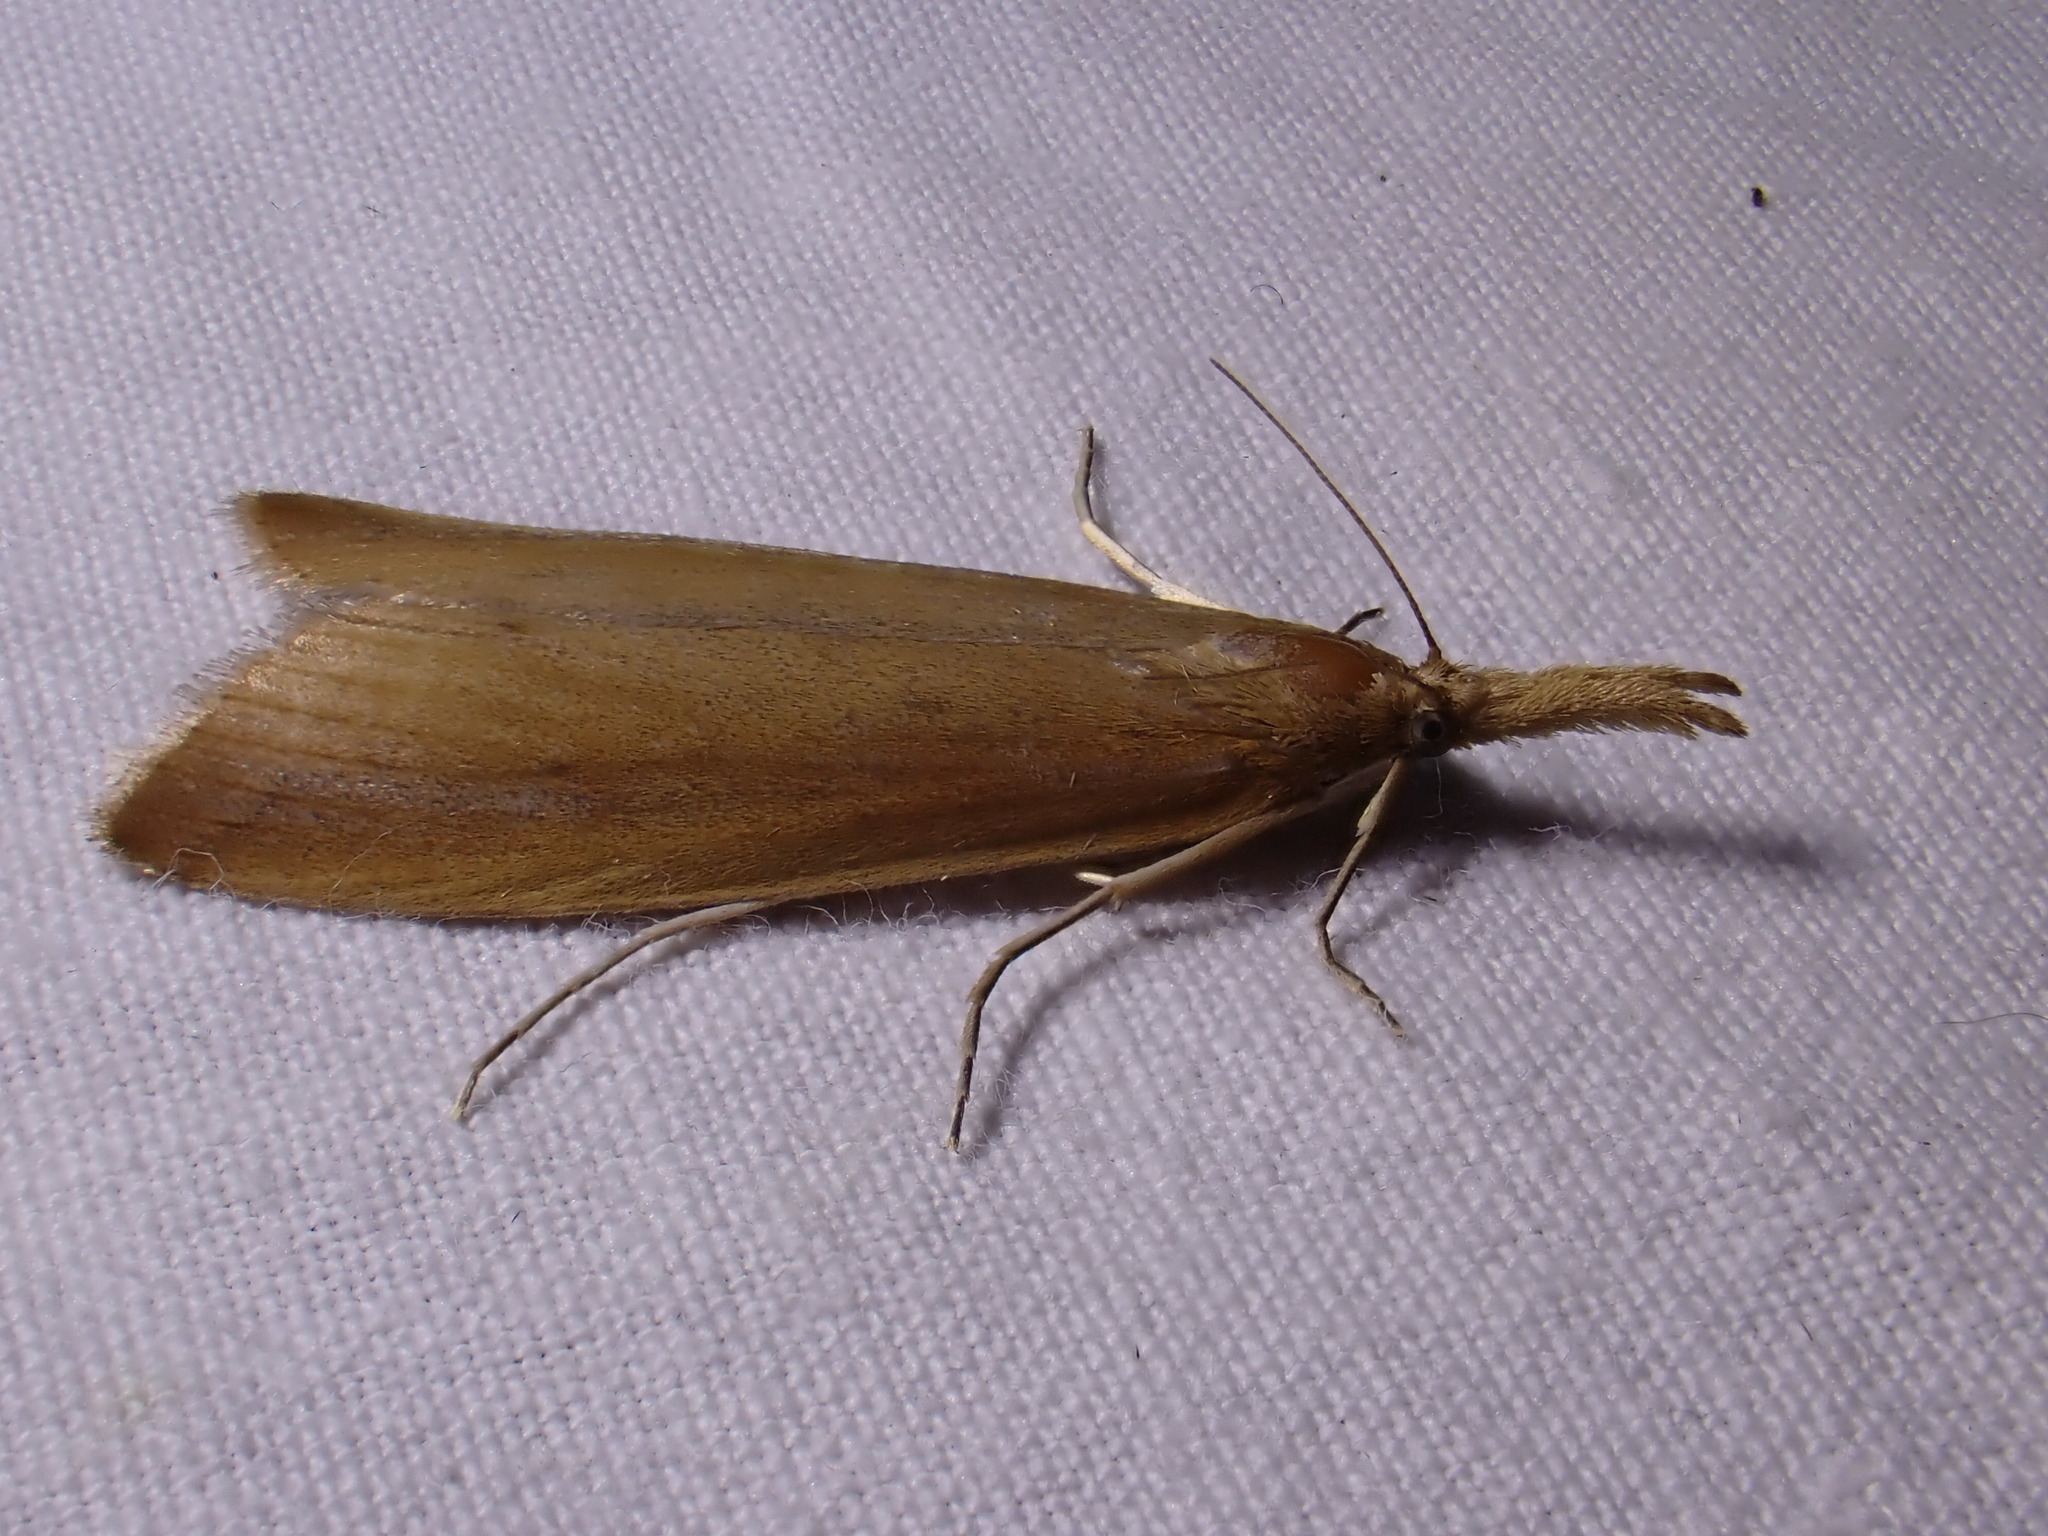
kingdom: Animalia
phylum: Arthropoda
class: Insecta
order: Lepidoptera
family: Crambidae
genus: Schoenobius
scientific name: Schoenobius gigantella
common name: Giant water-veneer
